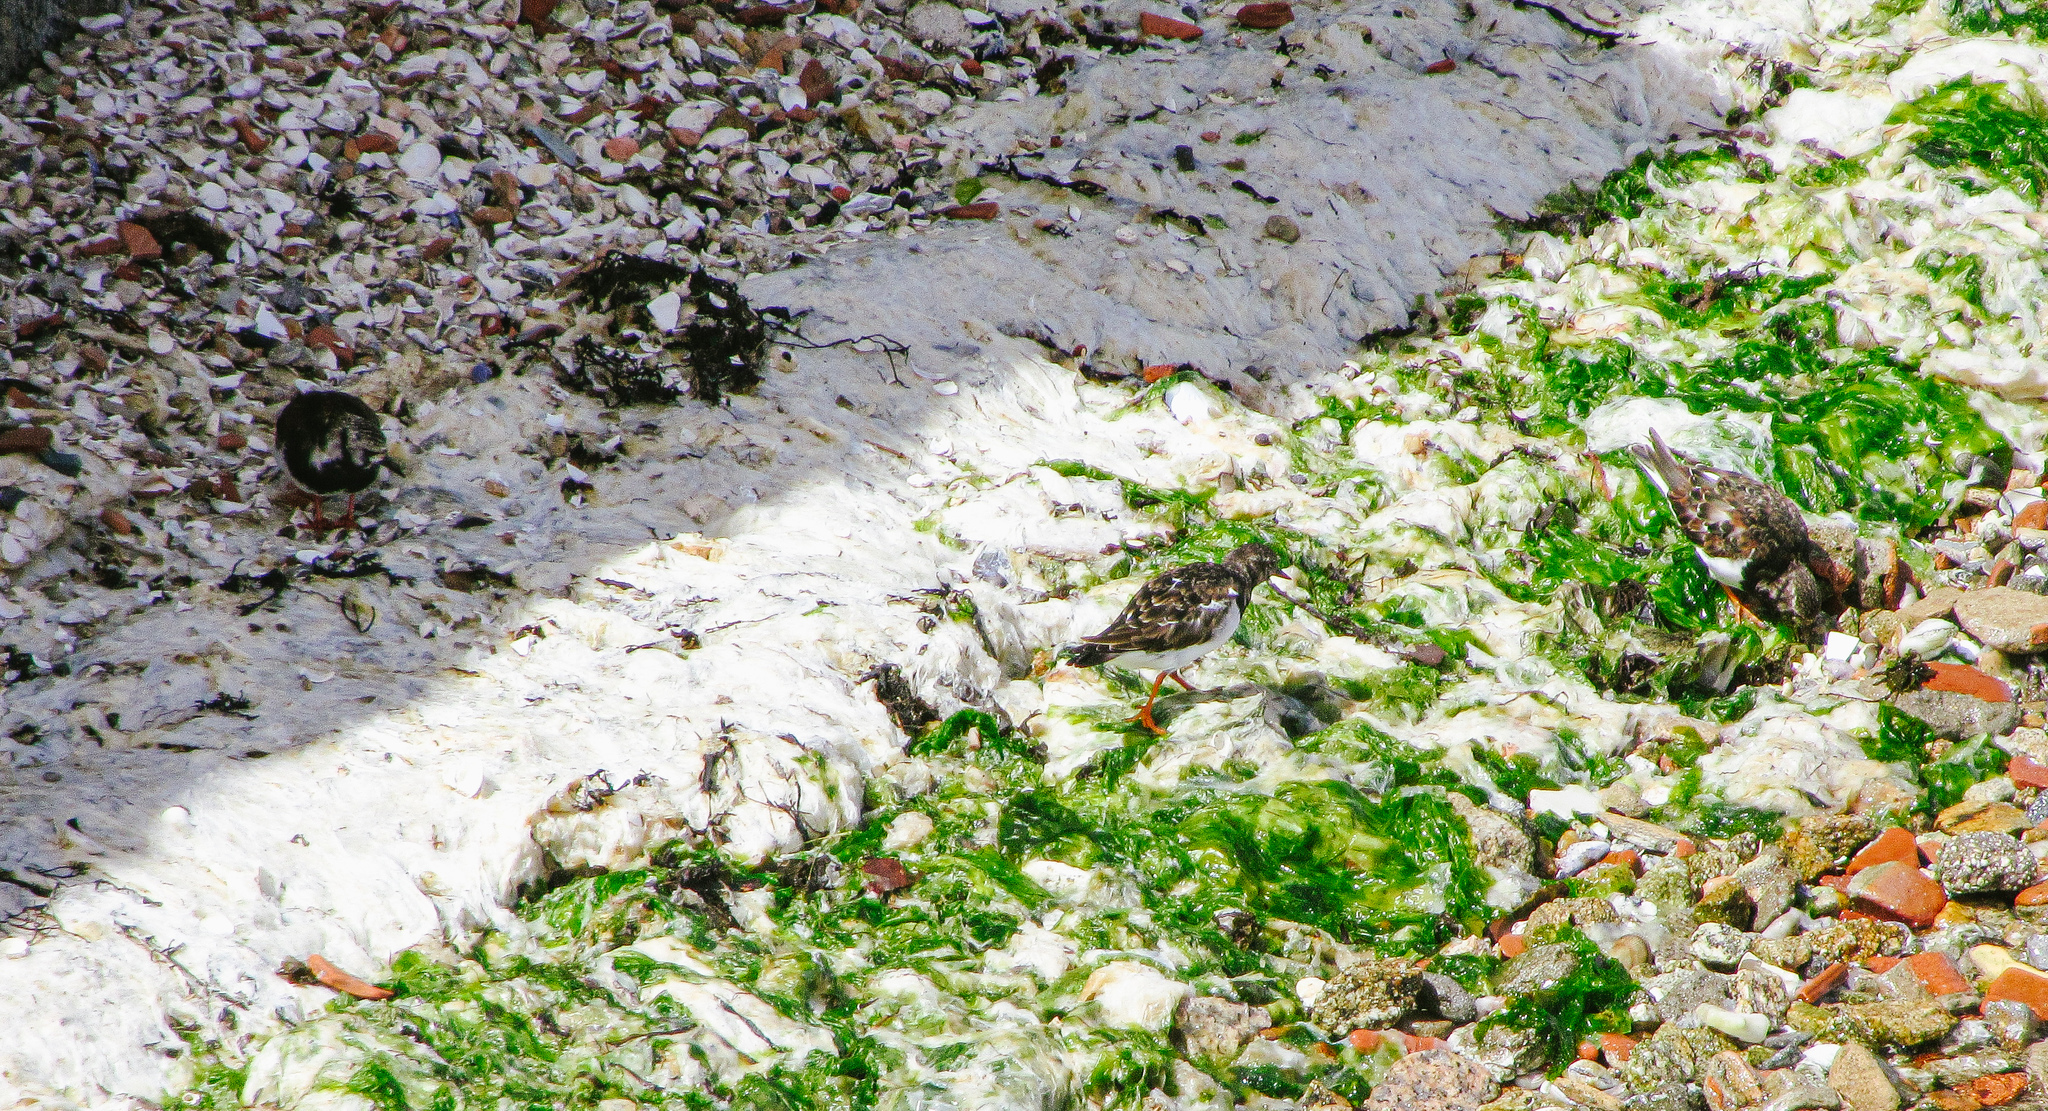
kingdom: Animalia
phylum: Chordata
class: Aves
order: Charadriiformes
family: Scolopacidae
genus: Arenaria
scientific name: Arenaria interpres
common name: Ruddy turnstone
